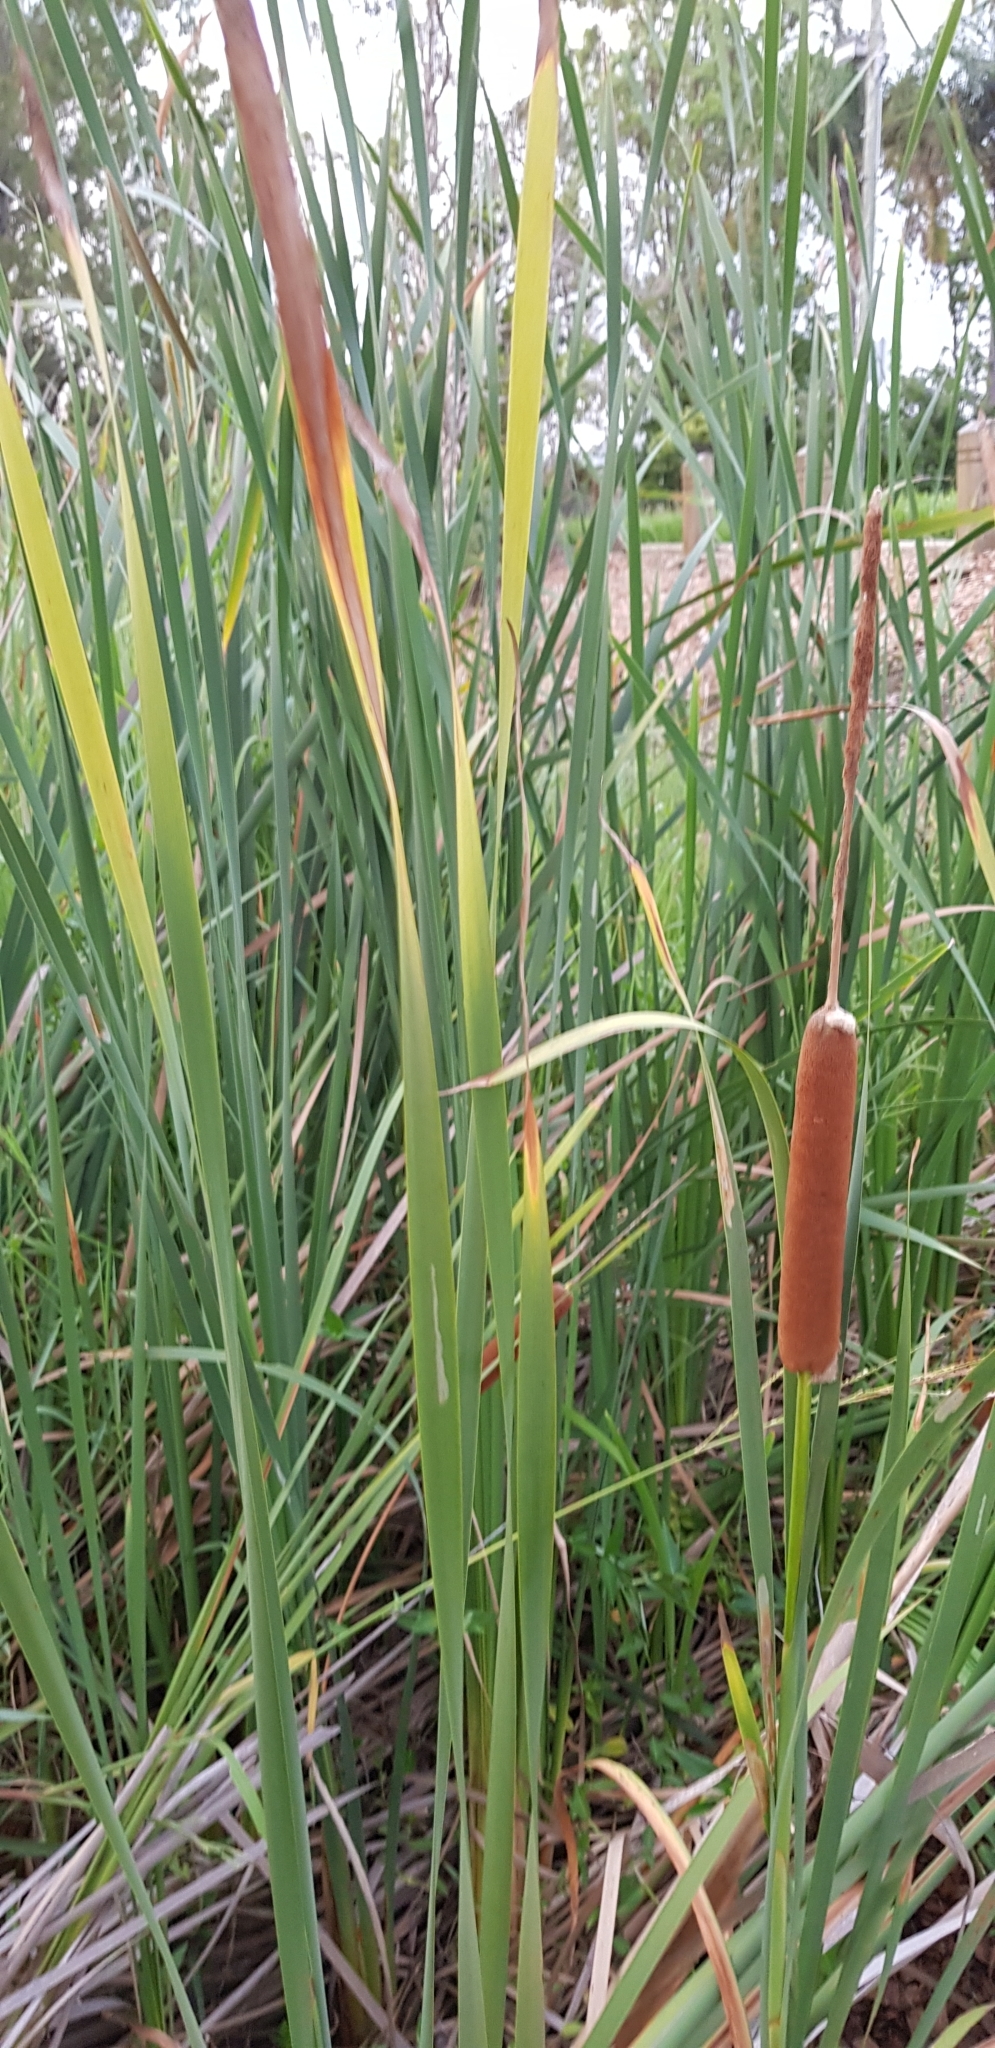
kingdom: Plantae
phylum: Tracheophyta
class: Liliopsida
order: Poales
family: Typhaceae
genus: Typha
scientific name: Typha orientalis
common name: Bullrush
